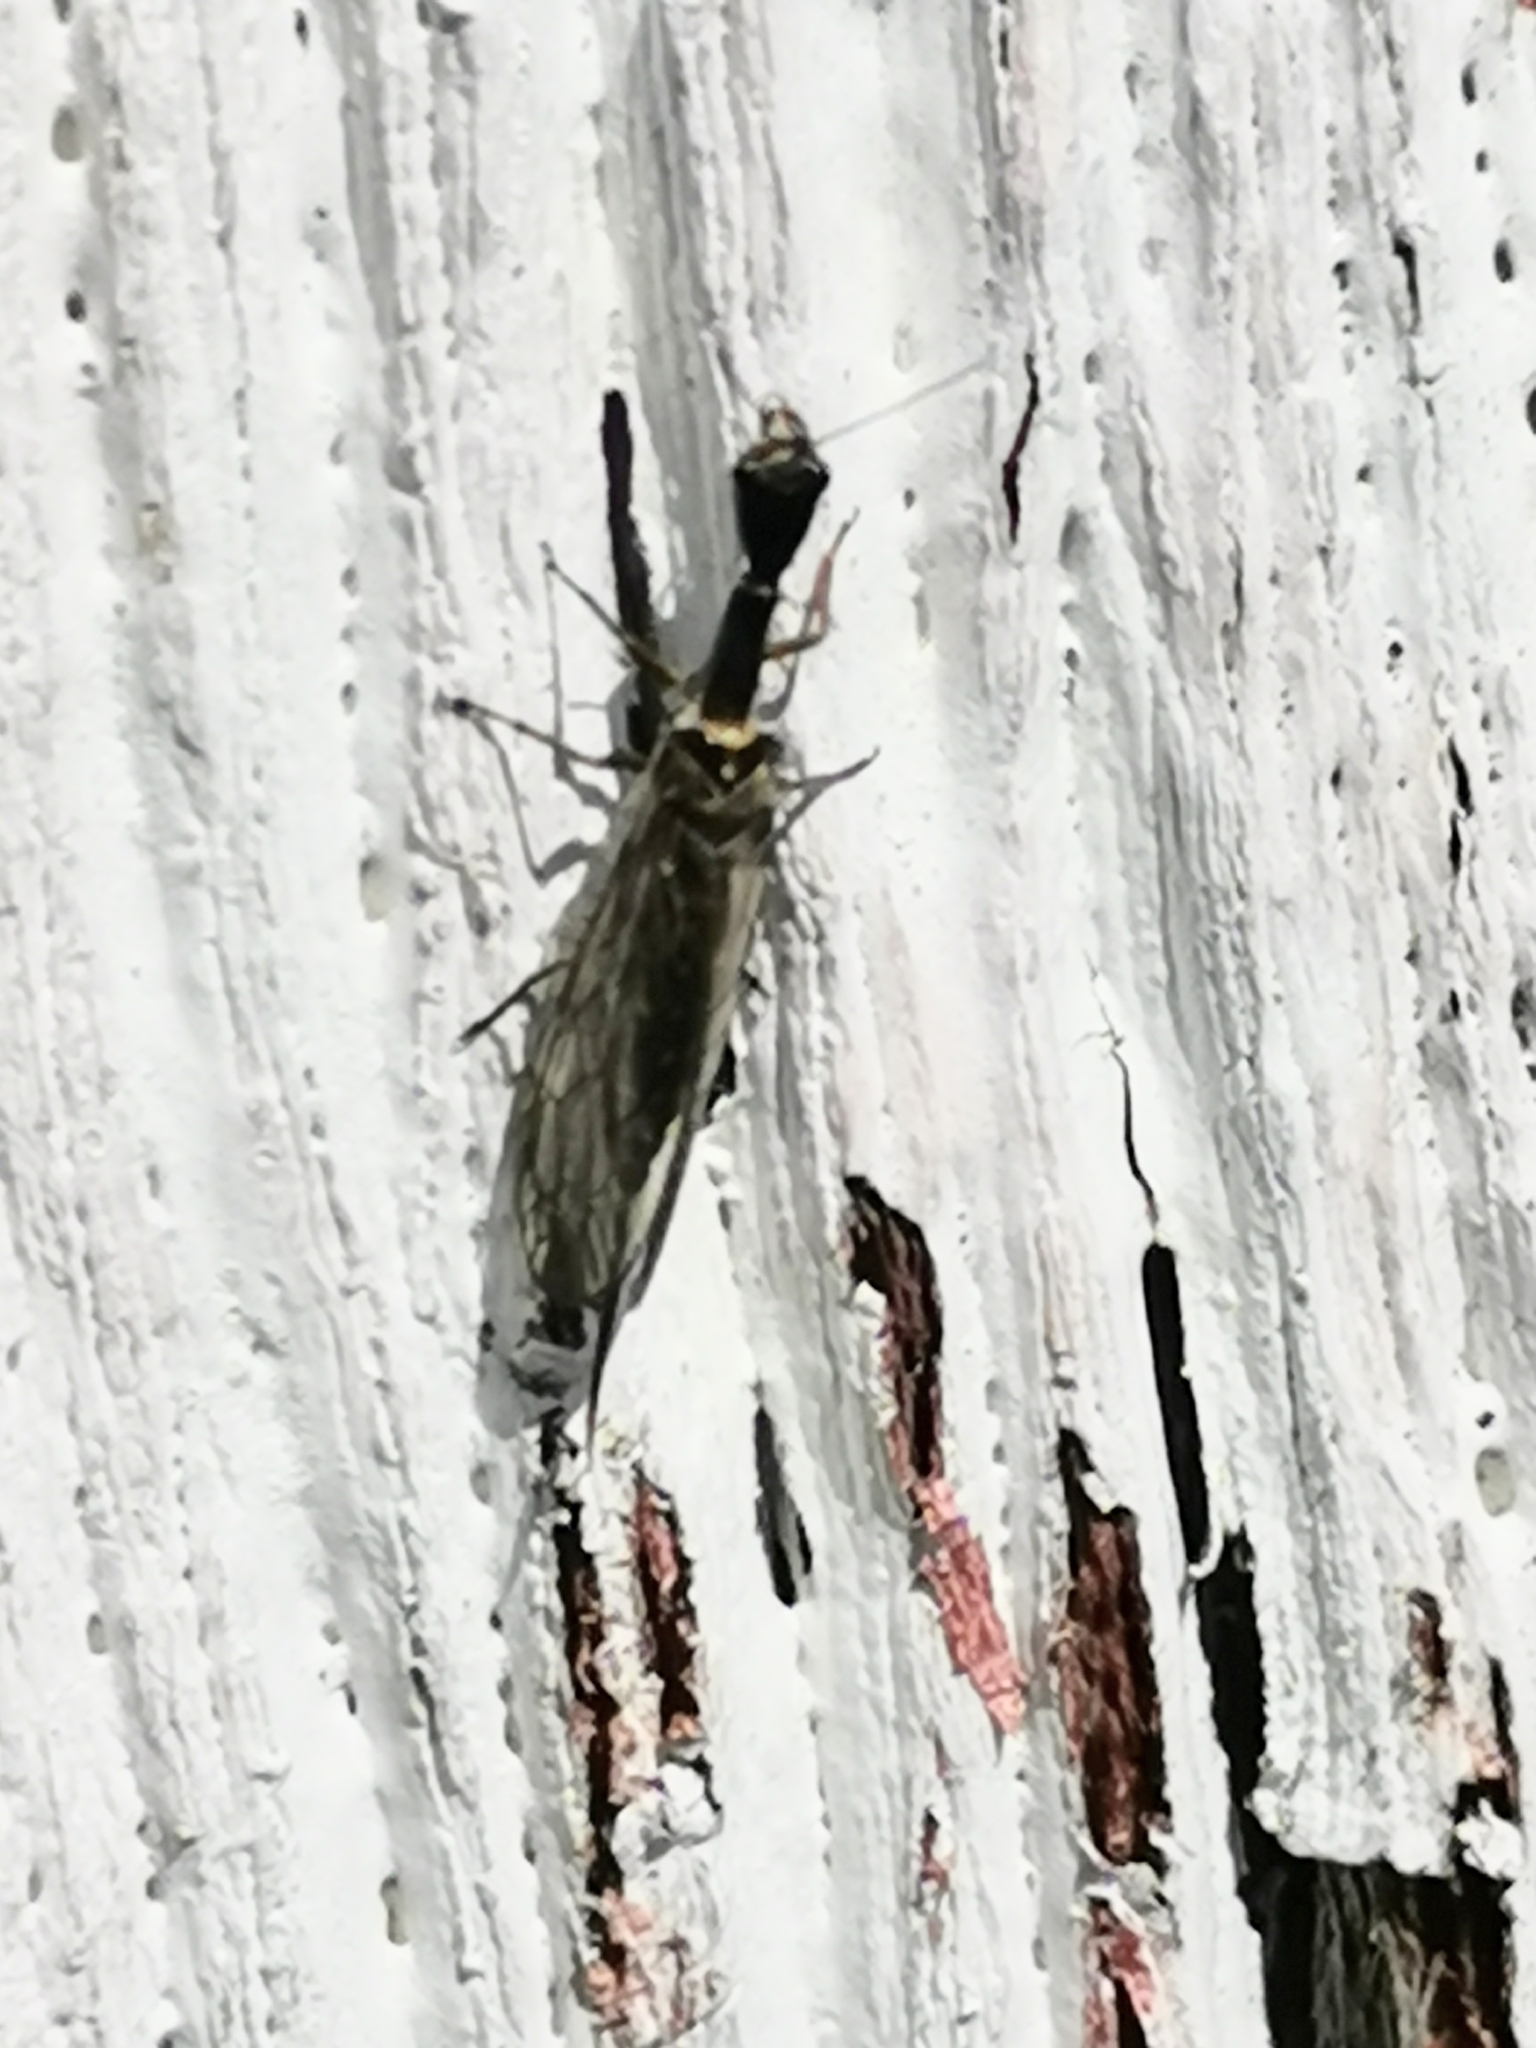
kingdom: Animalia
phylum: Arthropoda
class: Insecta
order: Raphidioptera
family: Raphidiidae
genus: Xanthostigma
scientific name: Xanthostigma xanthostigma
